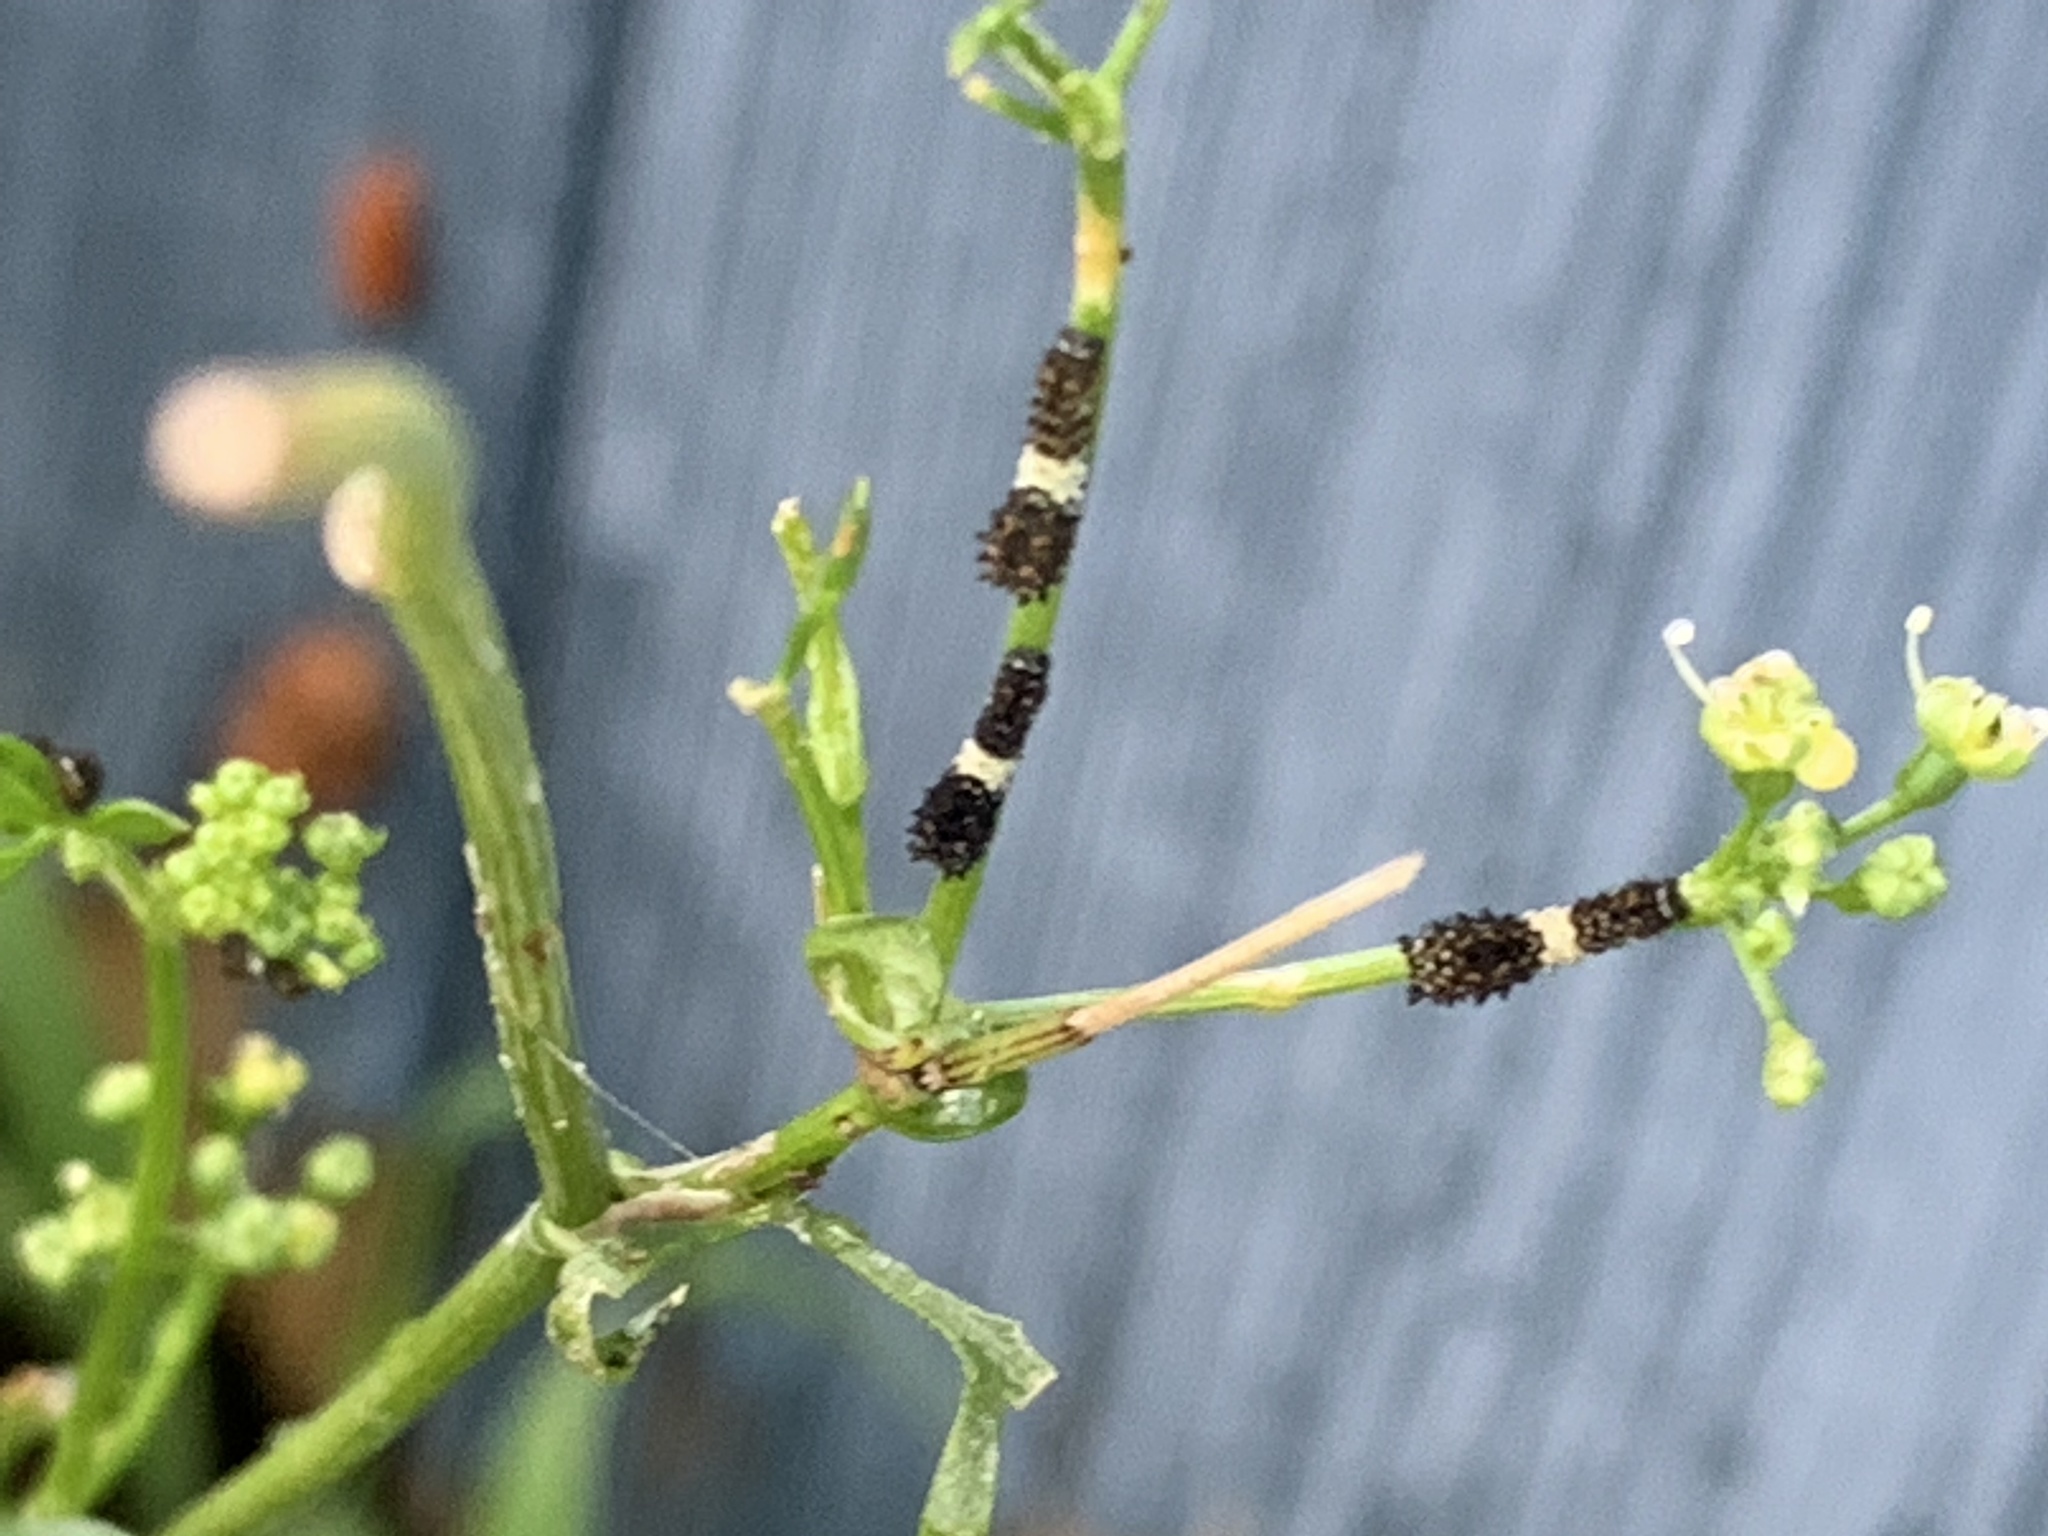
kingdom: Animalia
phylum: Arthropoda
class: Insecta
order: Lepidoptera
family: Papilionidae
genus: Papilio
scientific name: Papilio polyxenes
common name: Black swallowtail
